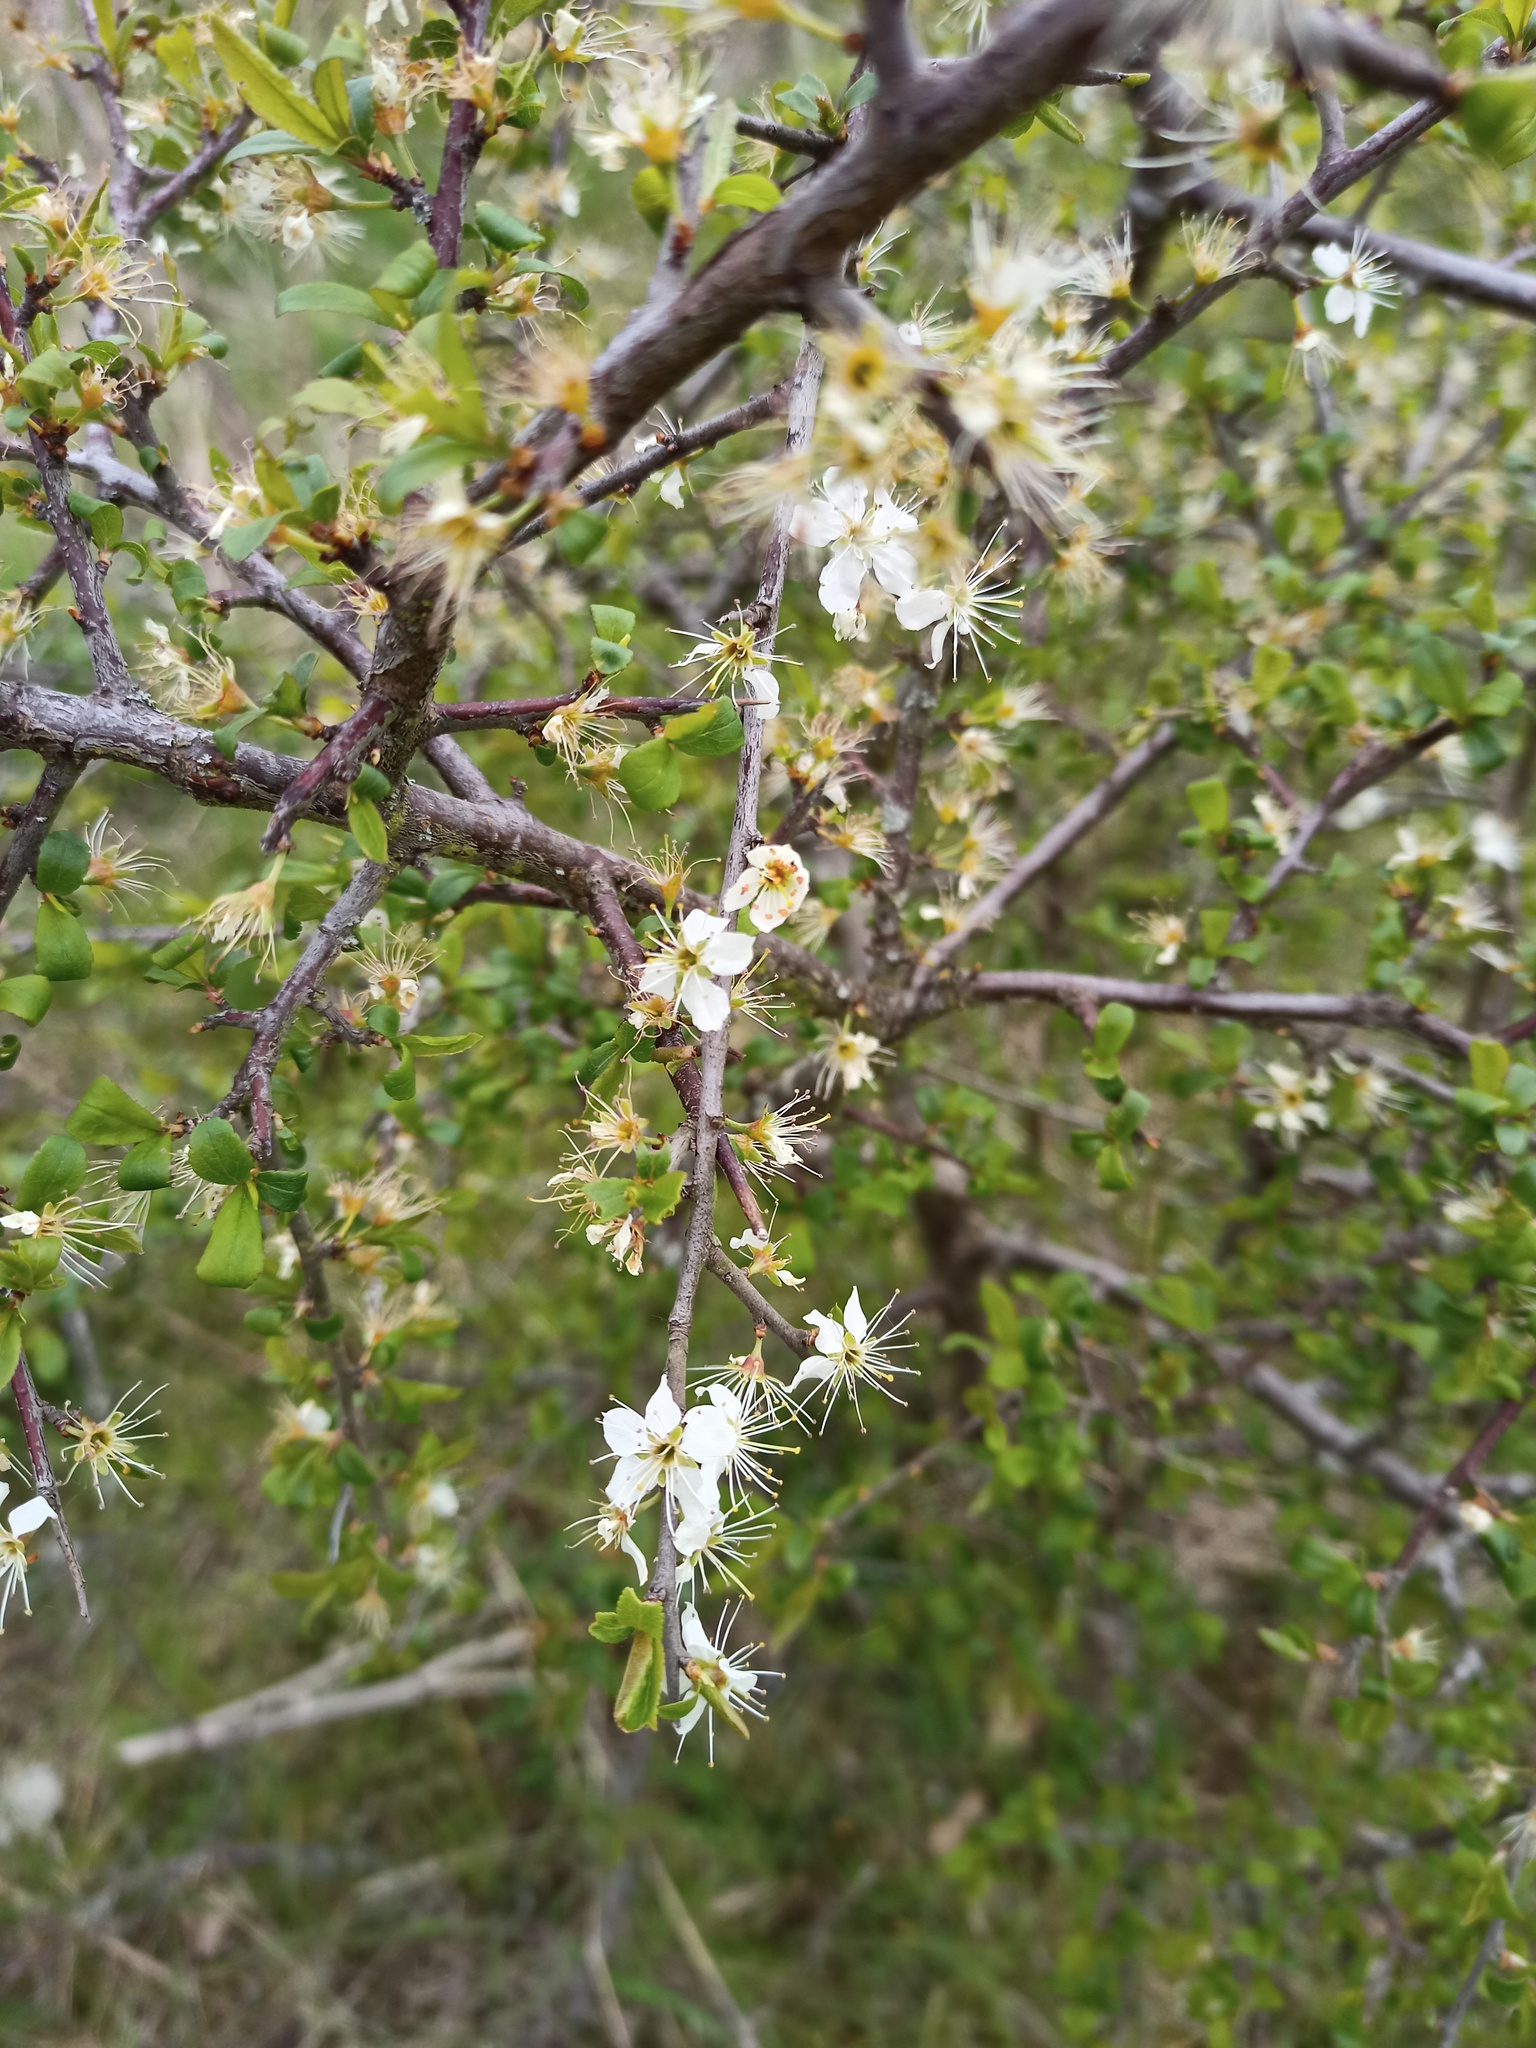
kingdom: Plantae
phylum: Tracheophyta
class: Magnoliopsida
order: Rosales
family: Rosaceae
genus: Prunus
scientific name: Prunus spinosa
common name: Blackthorn
